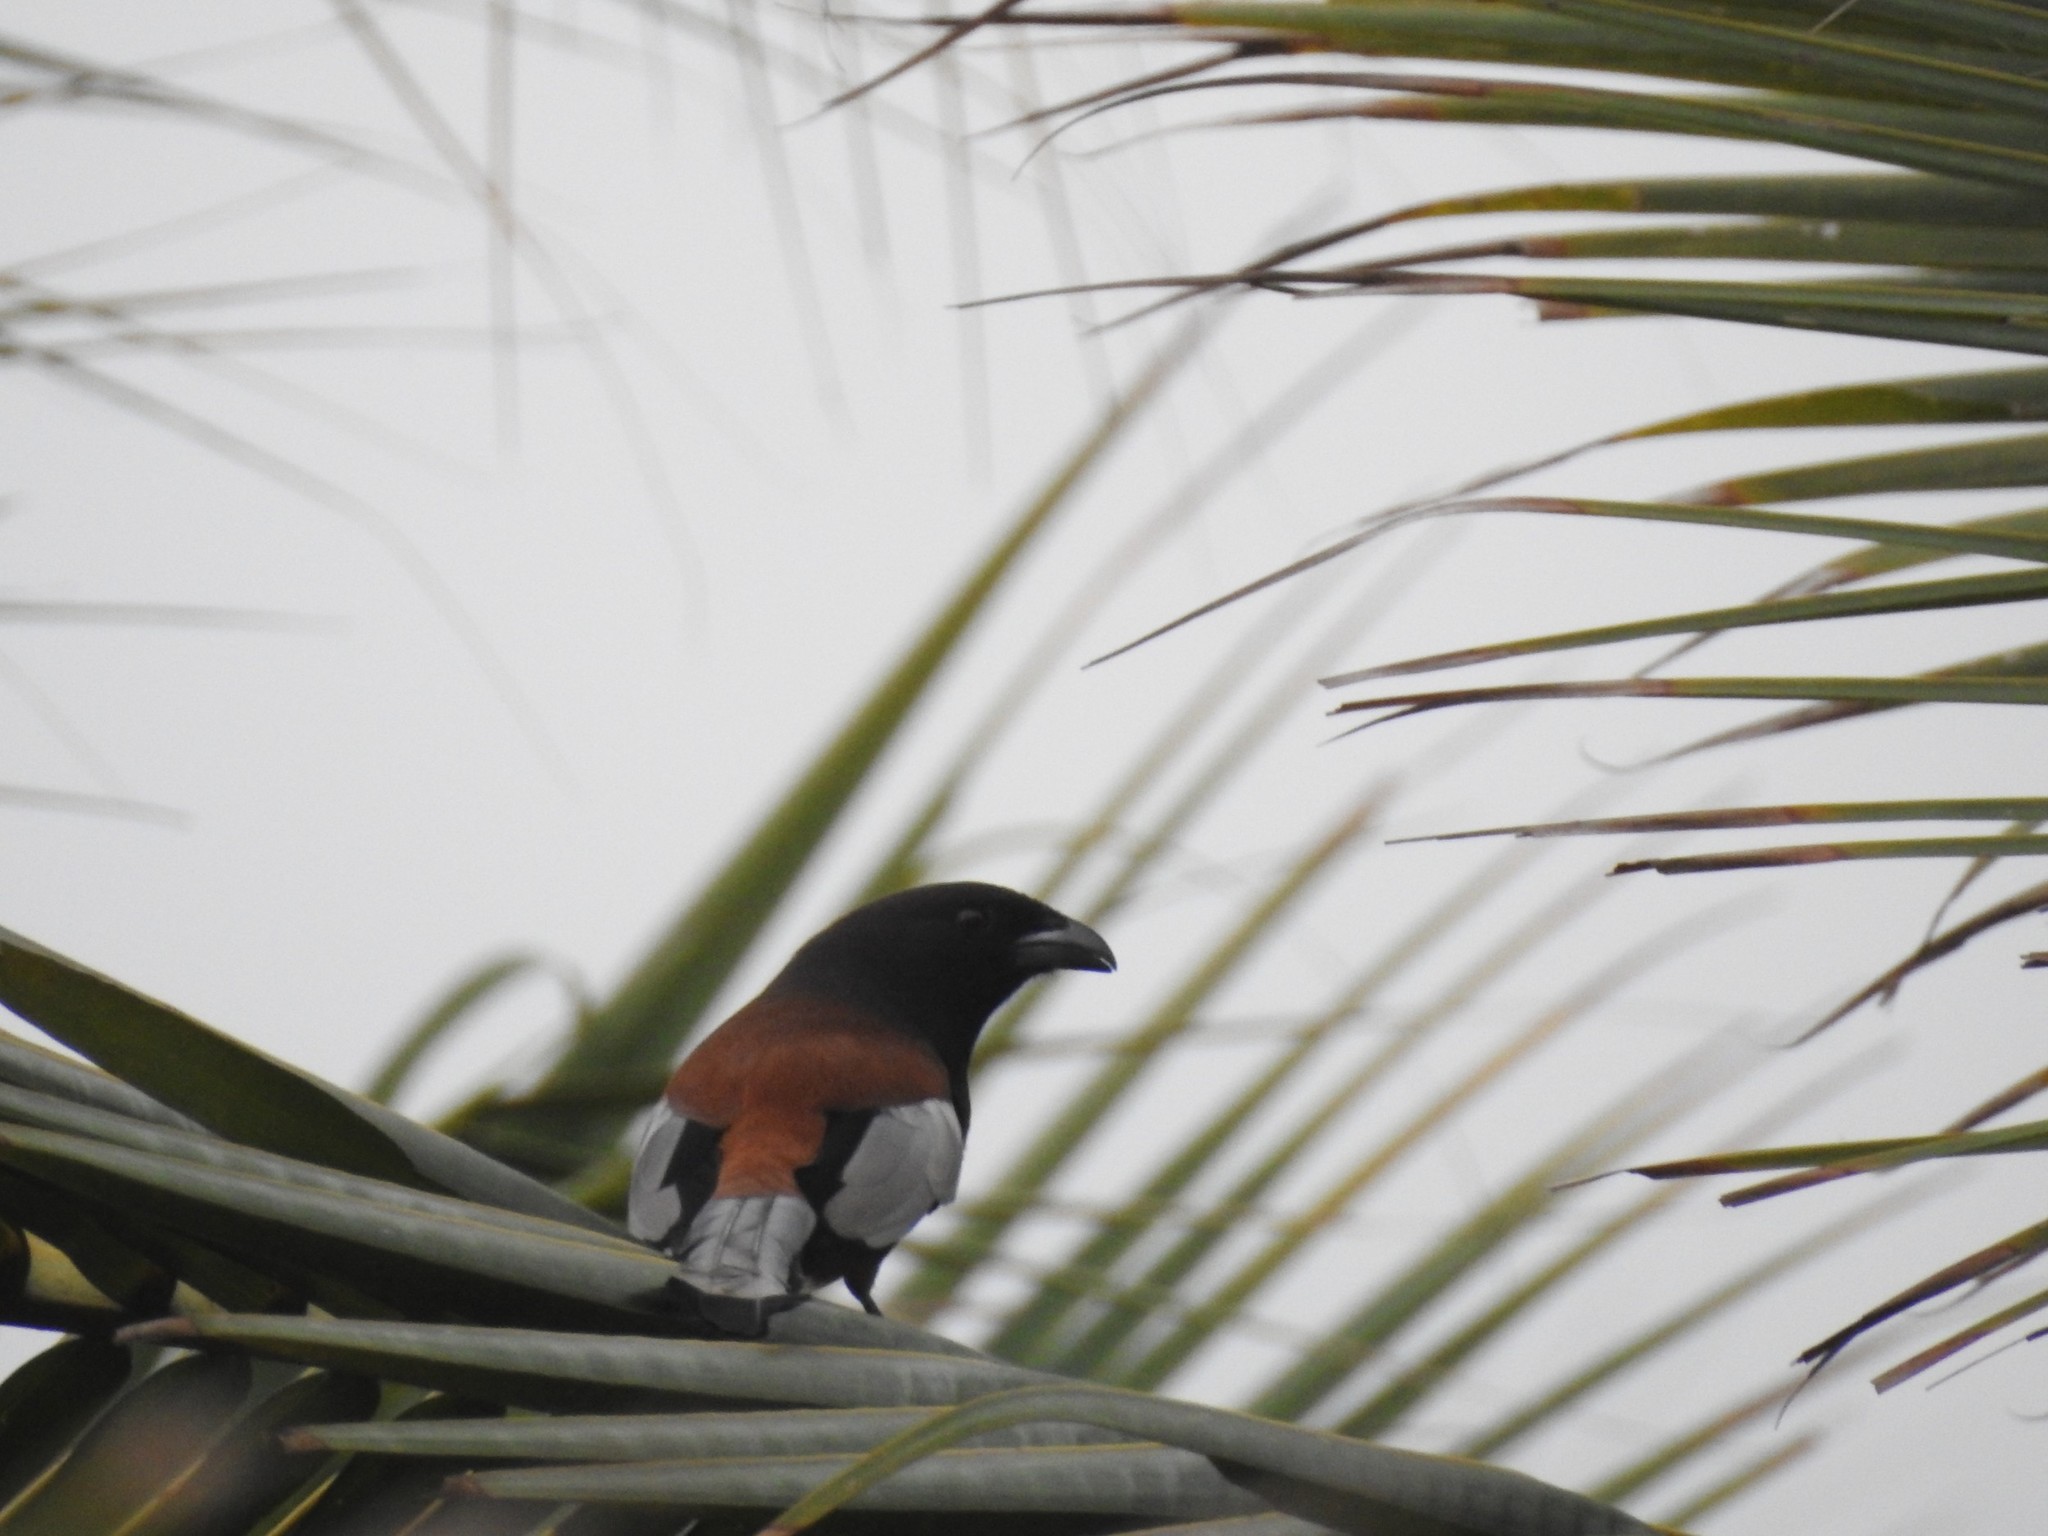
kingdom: Animalia
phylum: Chordata
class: Aves
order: Passeriformes
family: Corvidae
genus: Dendrocitta
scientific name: Dendrocitta vagabunda
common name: Rufous treepie
